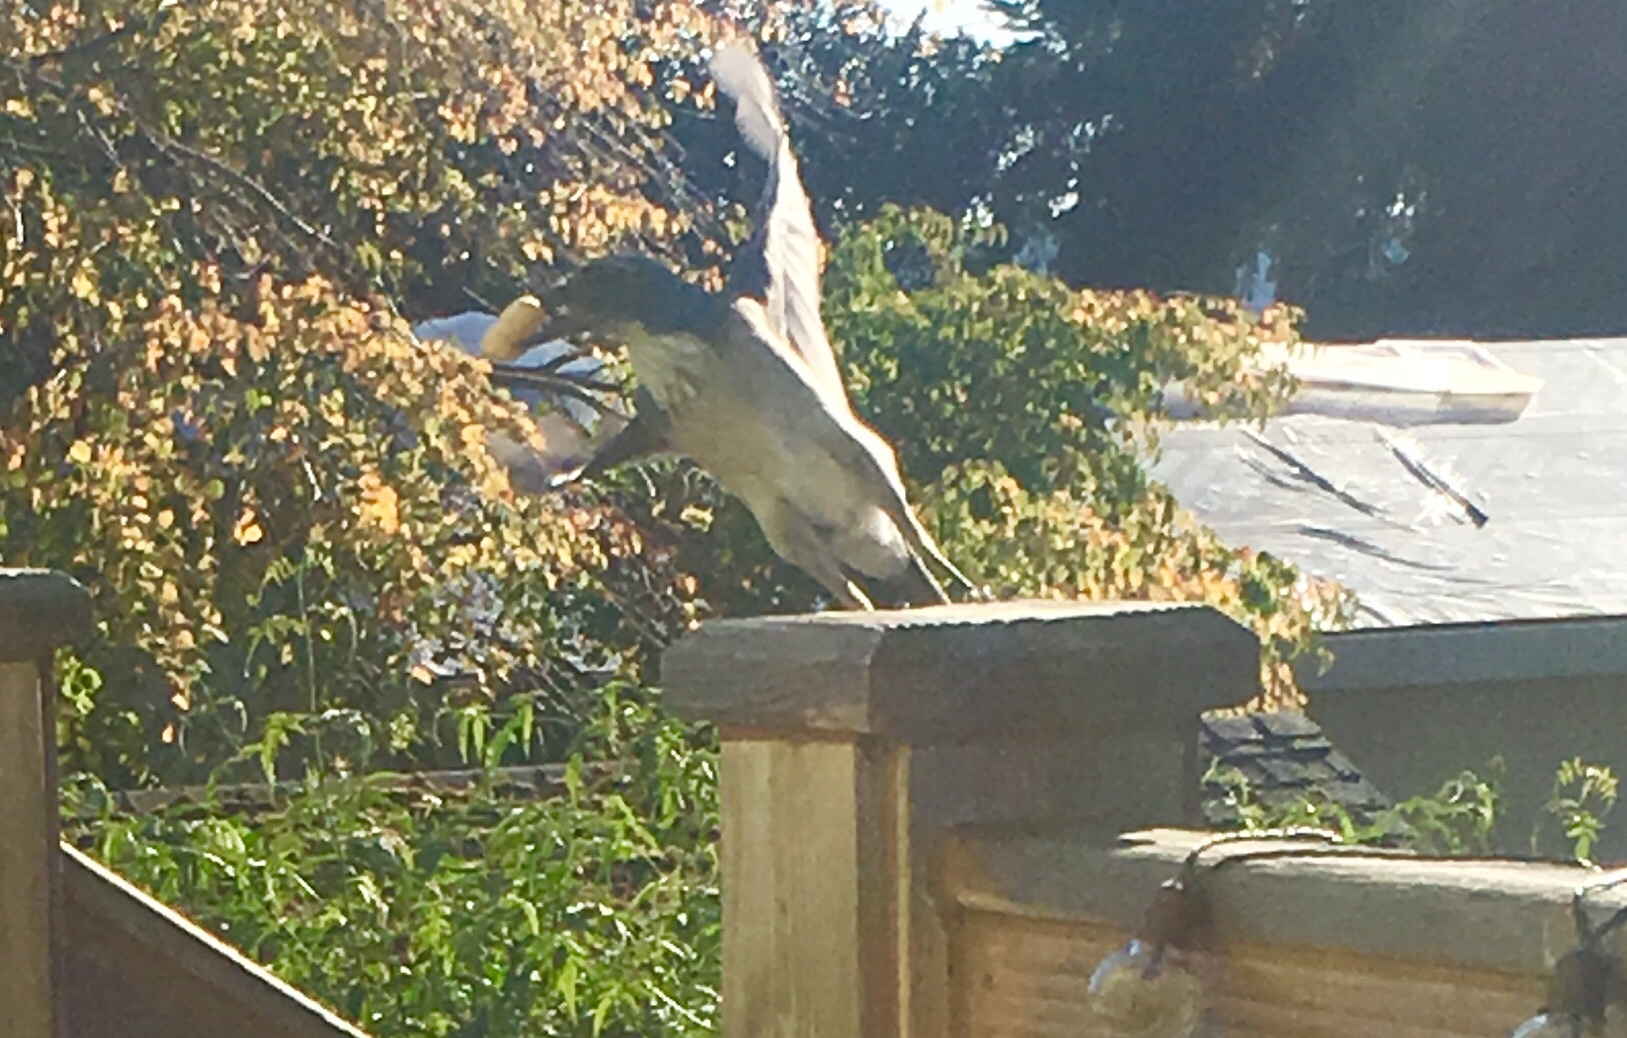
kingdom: Animalia
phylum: Chordata
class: Aves
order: Passeriformes
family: Corvidae
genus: Aphelocoma
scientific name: Aphelocoma californica
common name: California scrub-jay
